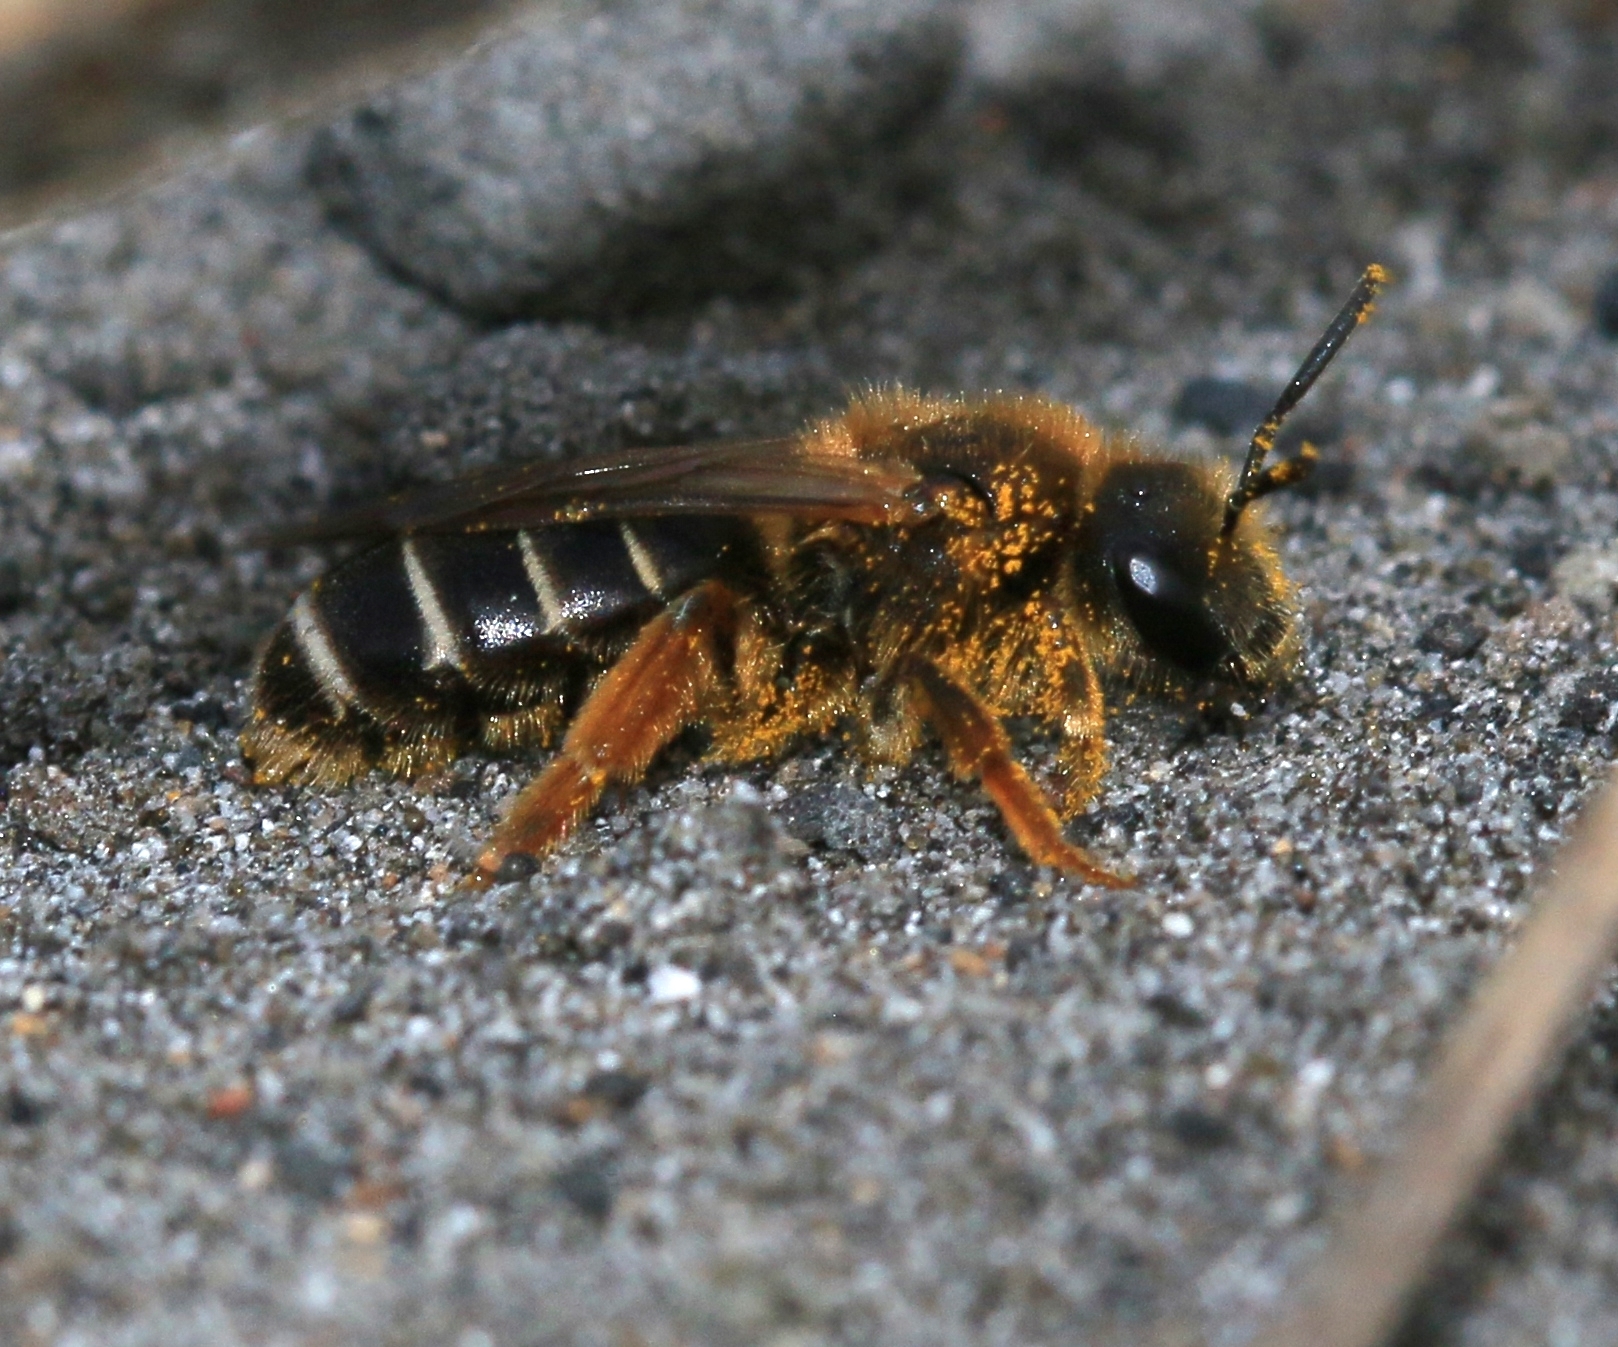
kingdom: Animalia
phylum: Arthropoda
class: Insecta
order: Hymenoptera
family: Halictidae
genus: Halictus
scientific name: Halictus rubicundus
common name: Orange-legged furrow bee
